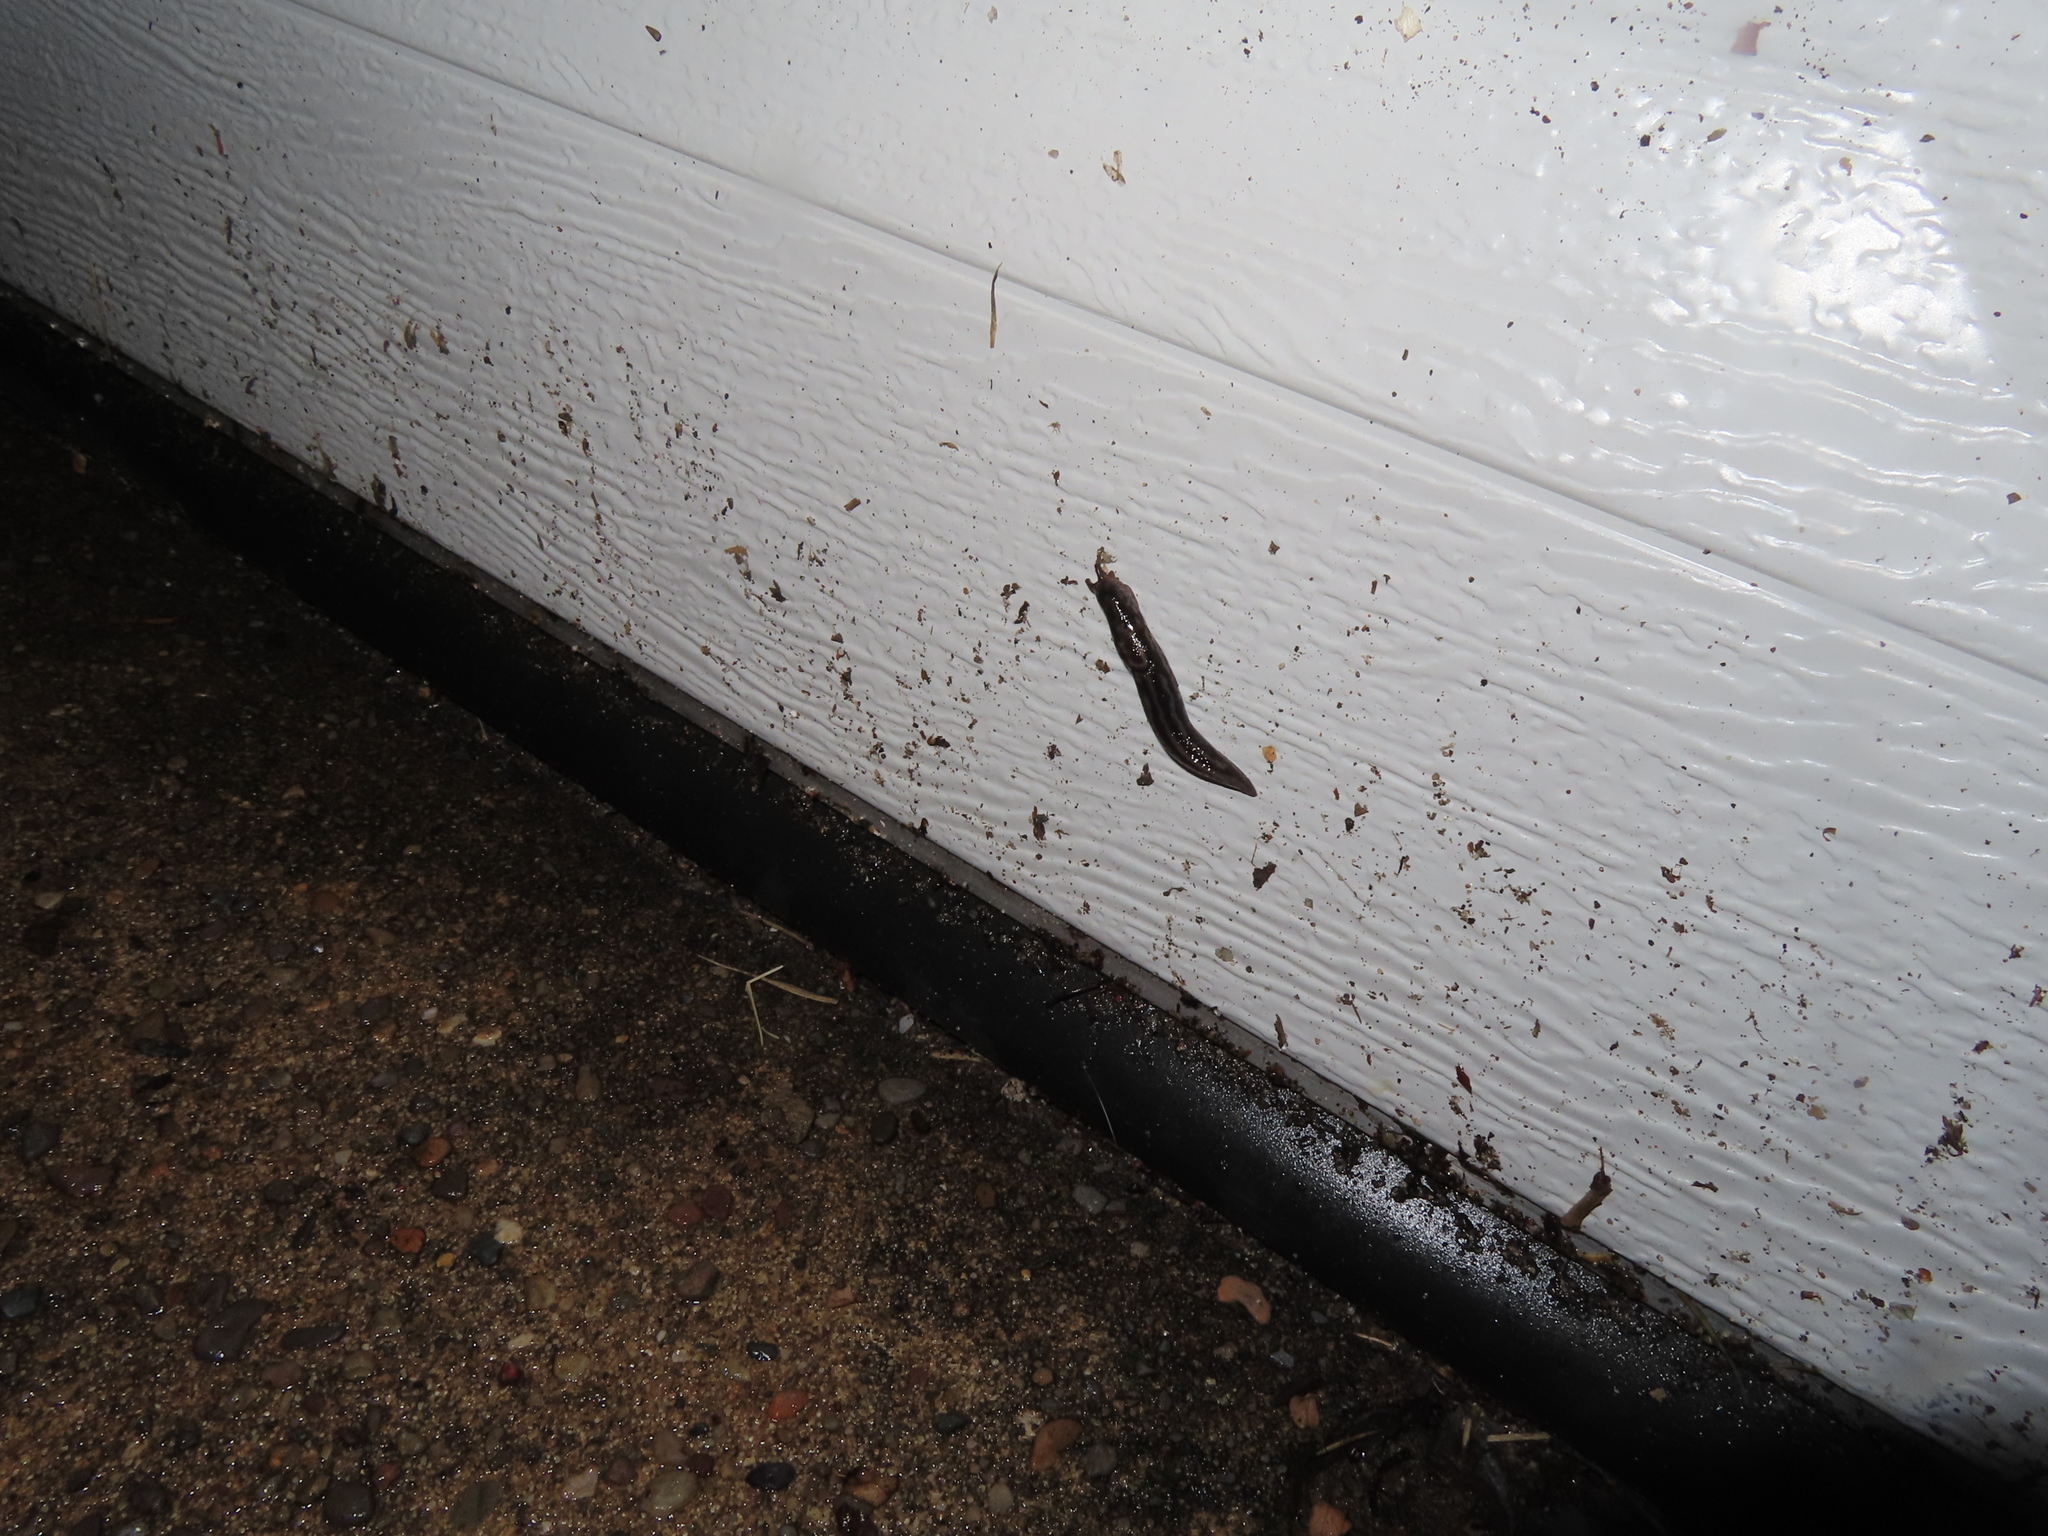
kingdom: Animalia
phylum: Mollusca
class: Gastropoda
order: Stylommatophora
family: Limacidae
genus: Limax
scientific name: Limax maximus
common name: Great grey slug
